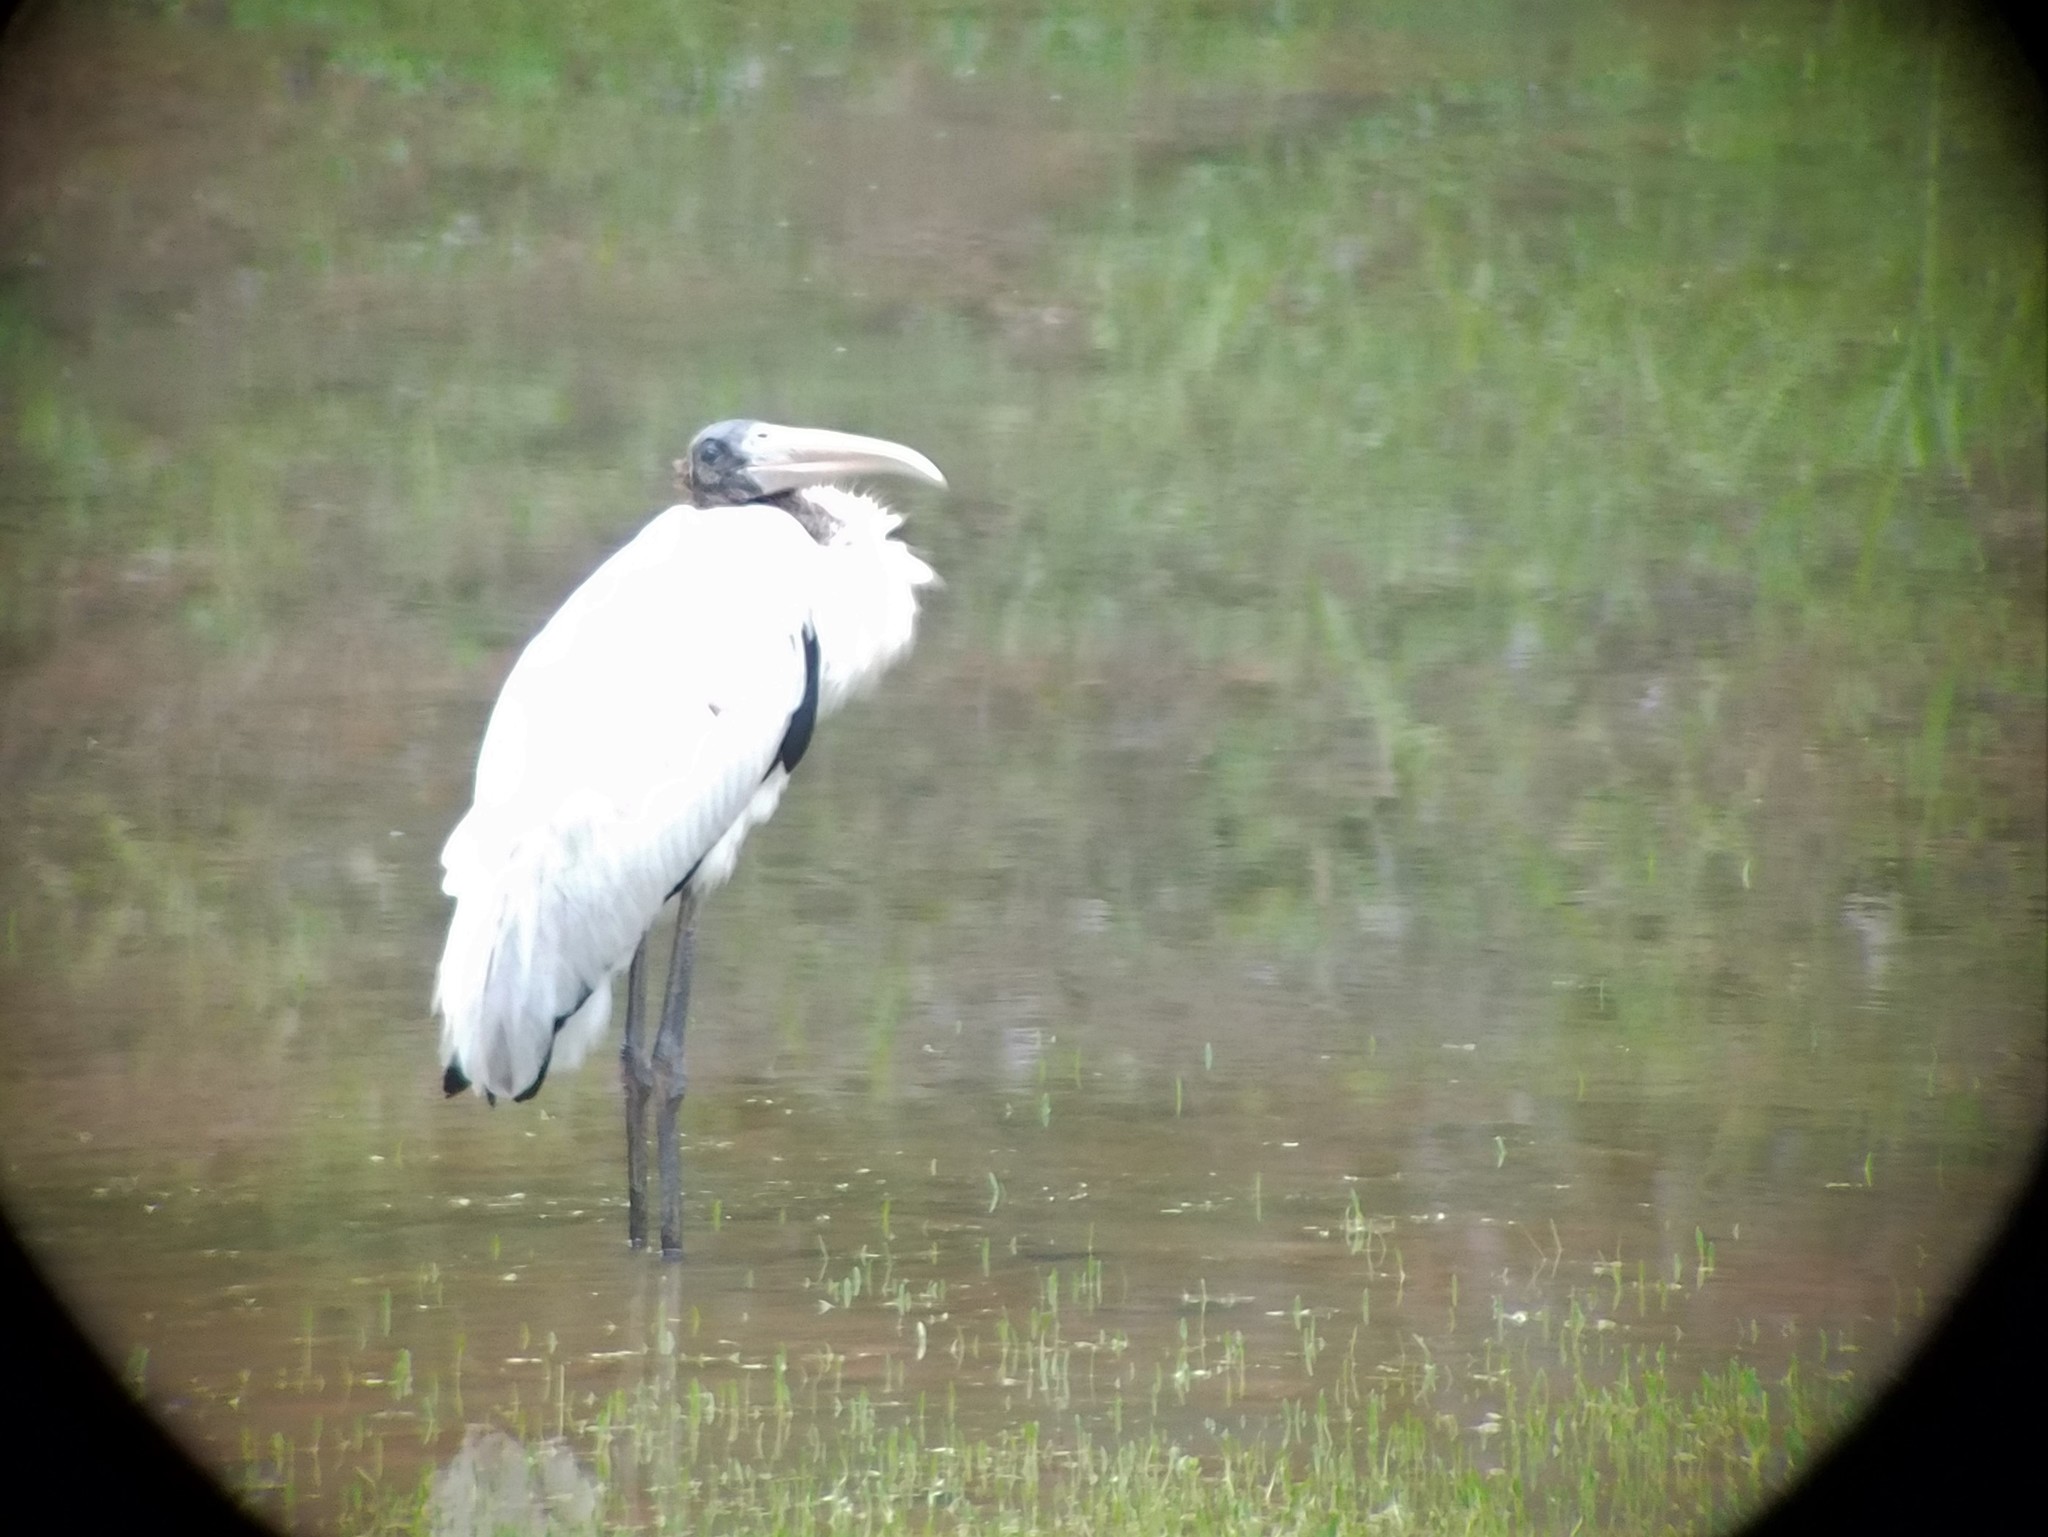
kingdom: Animalia
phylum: Chordata
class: Aves
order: Ciconiiformes
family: Ciconiidae
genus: Mycteria
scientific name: Mycteria americana
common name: Wood stork
